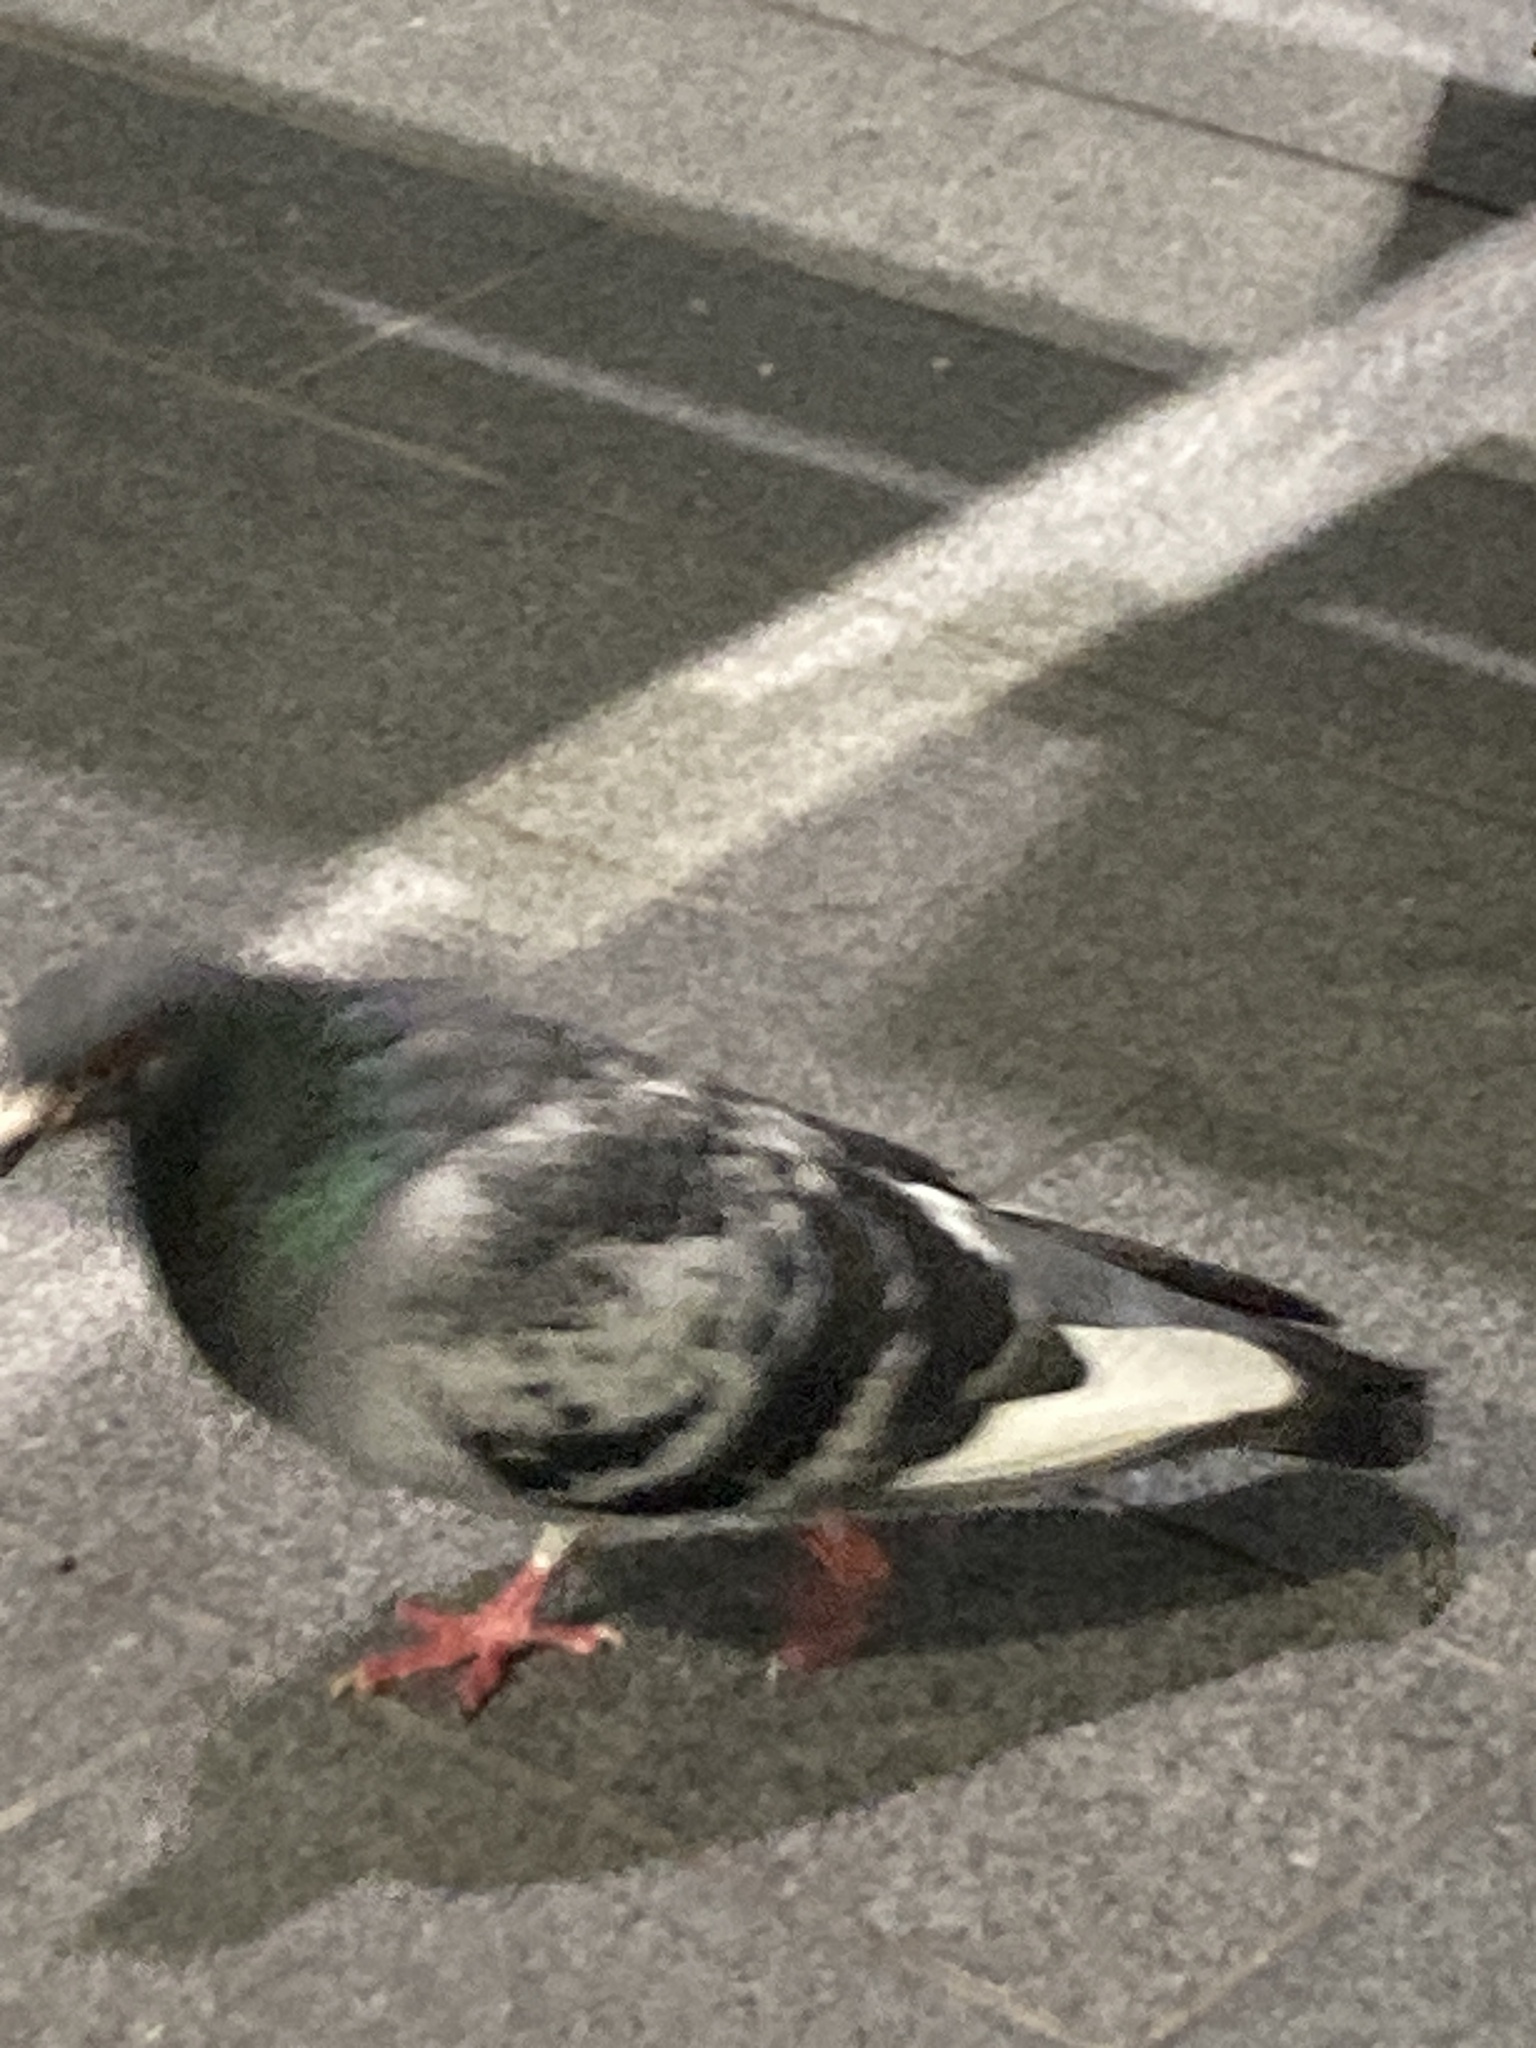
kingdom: Animalia
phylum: Chordata
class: Aves
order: Columbiformes
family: Columbidae
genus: Columba
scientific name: Columba livia
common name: Rock pigeon
